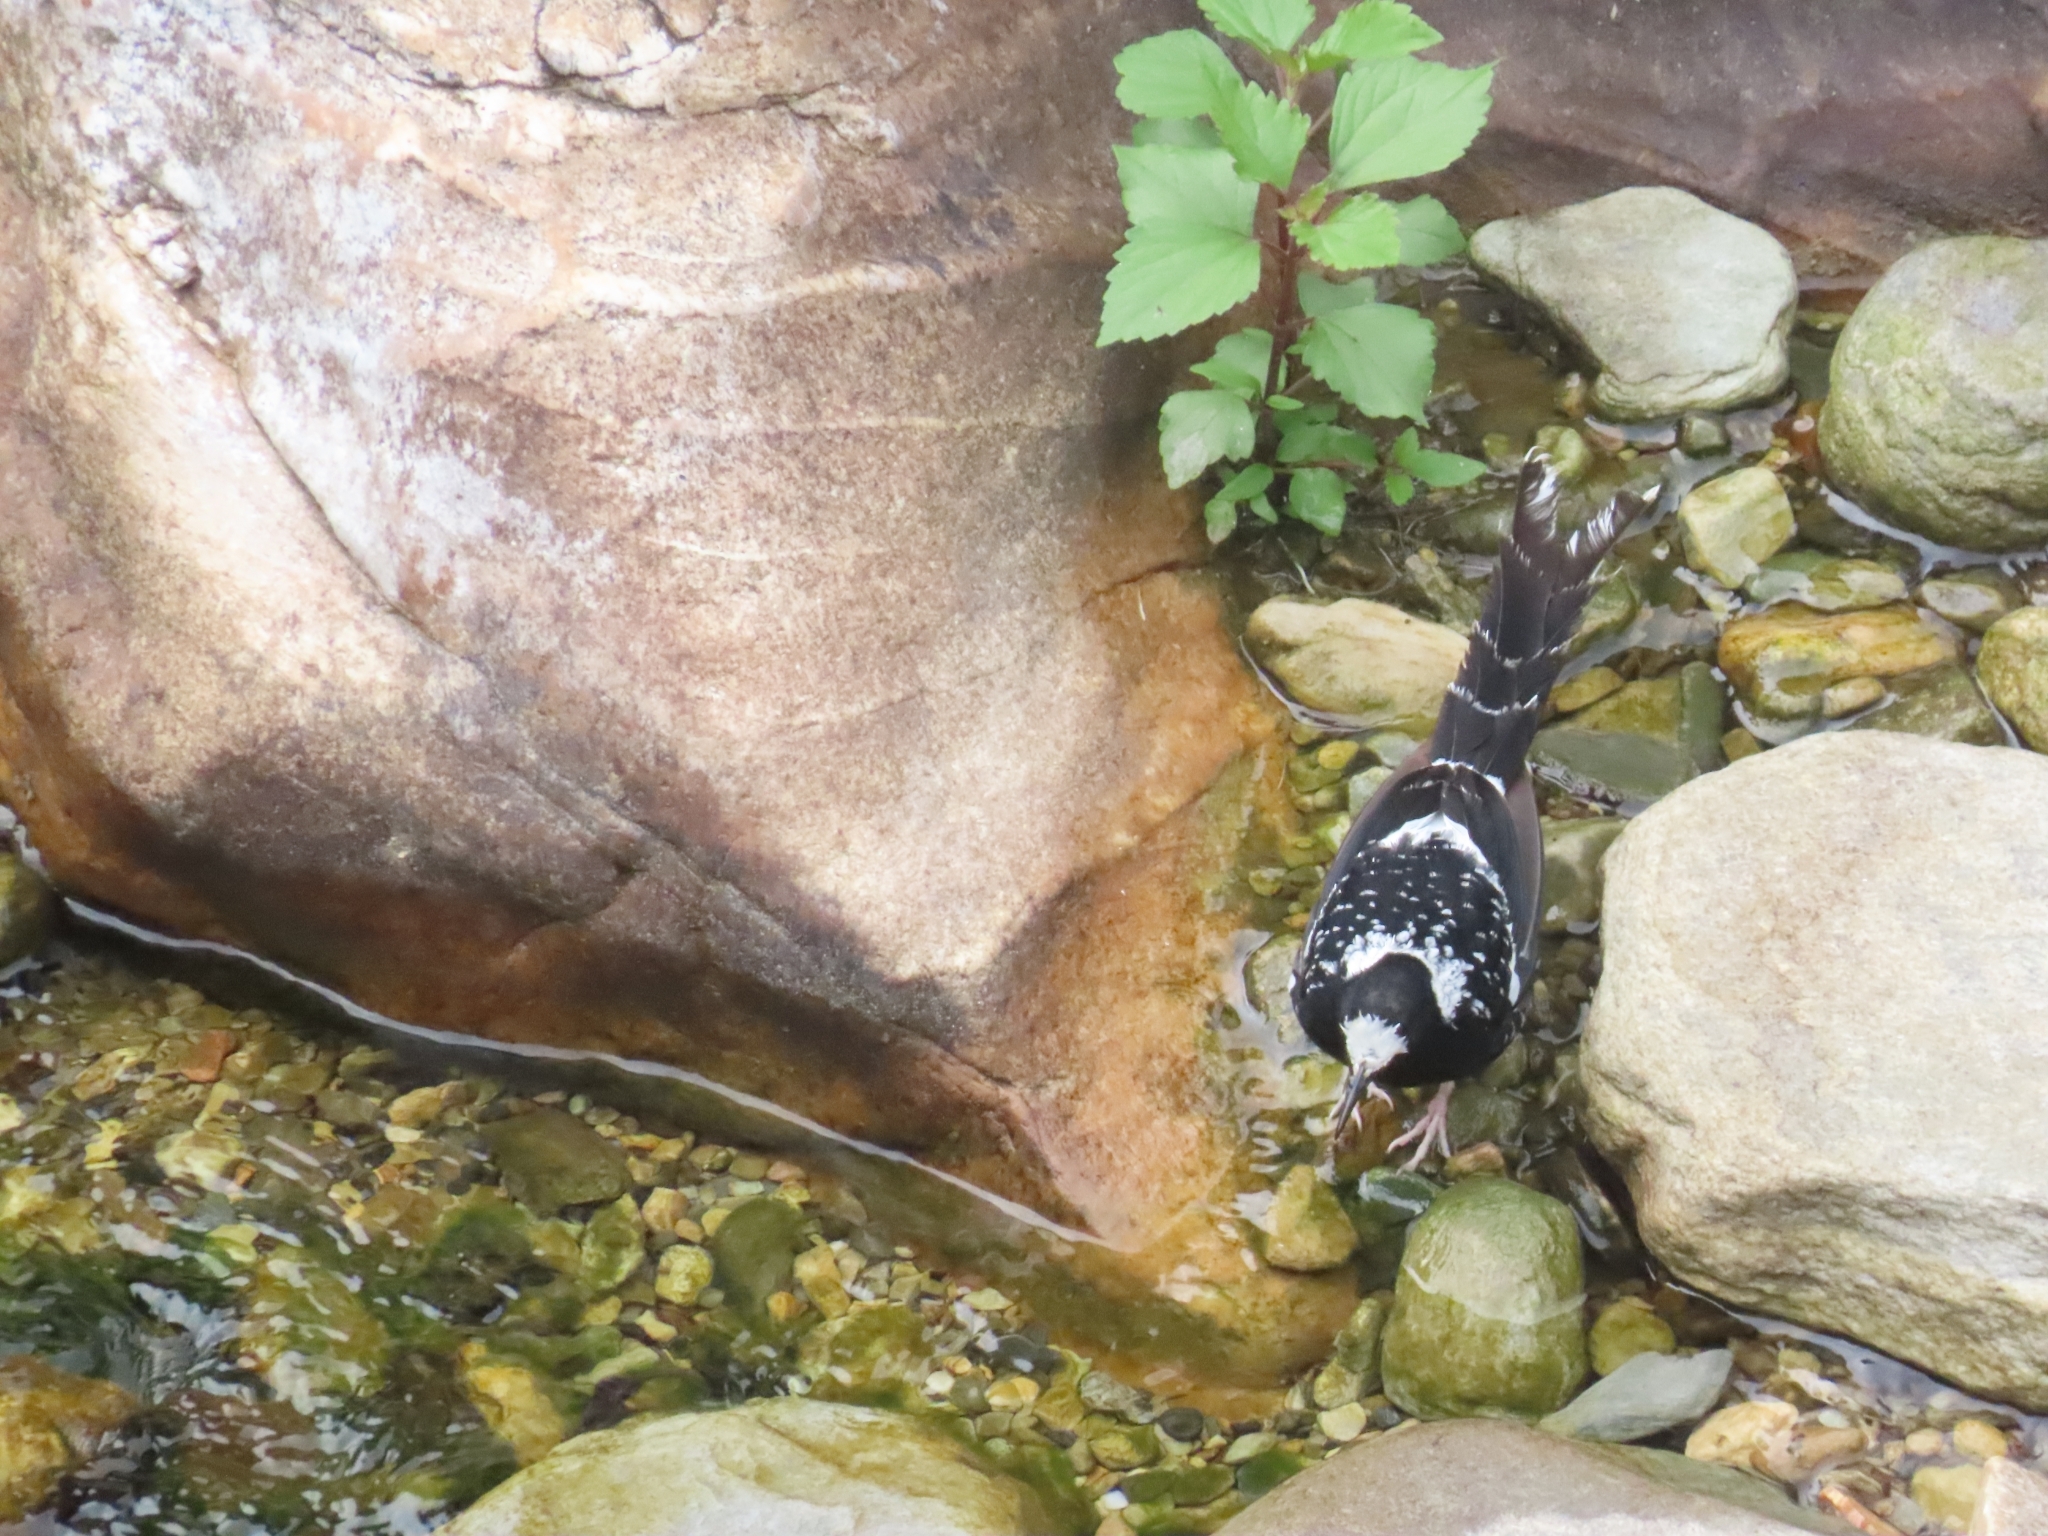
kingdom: Animalia
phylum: Chordata
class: Aves
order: Passeriformes
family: Muscicapidae
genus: Enicurus
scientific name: Enicurus maculatus
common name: Spotted forktail
